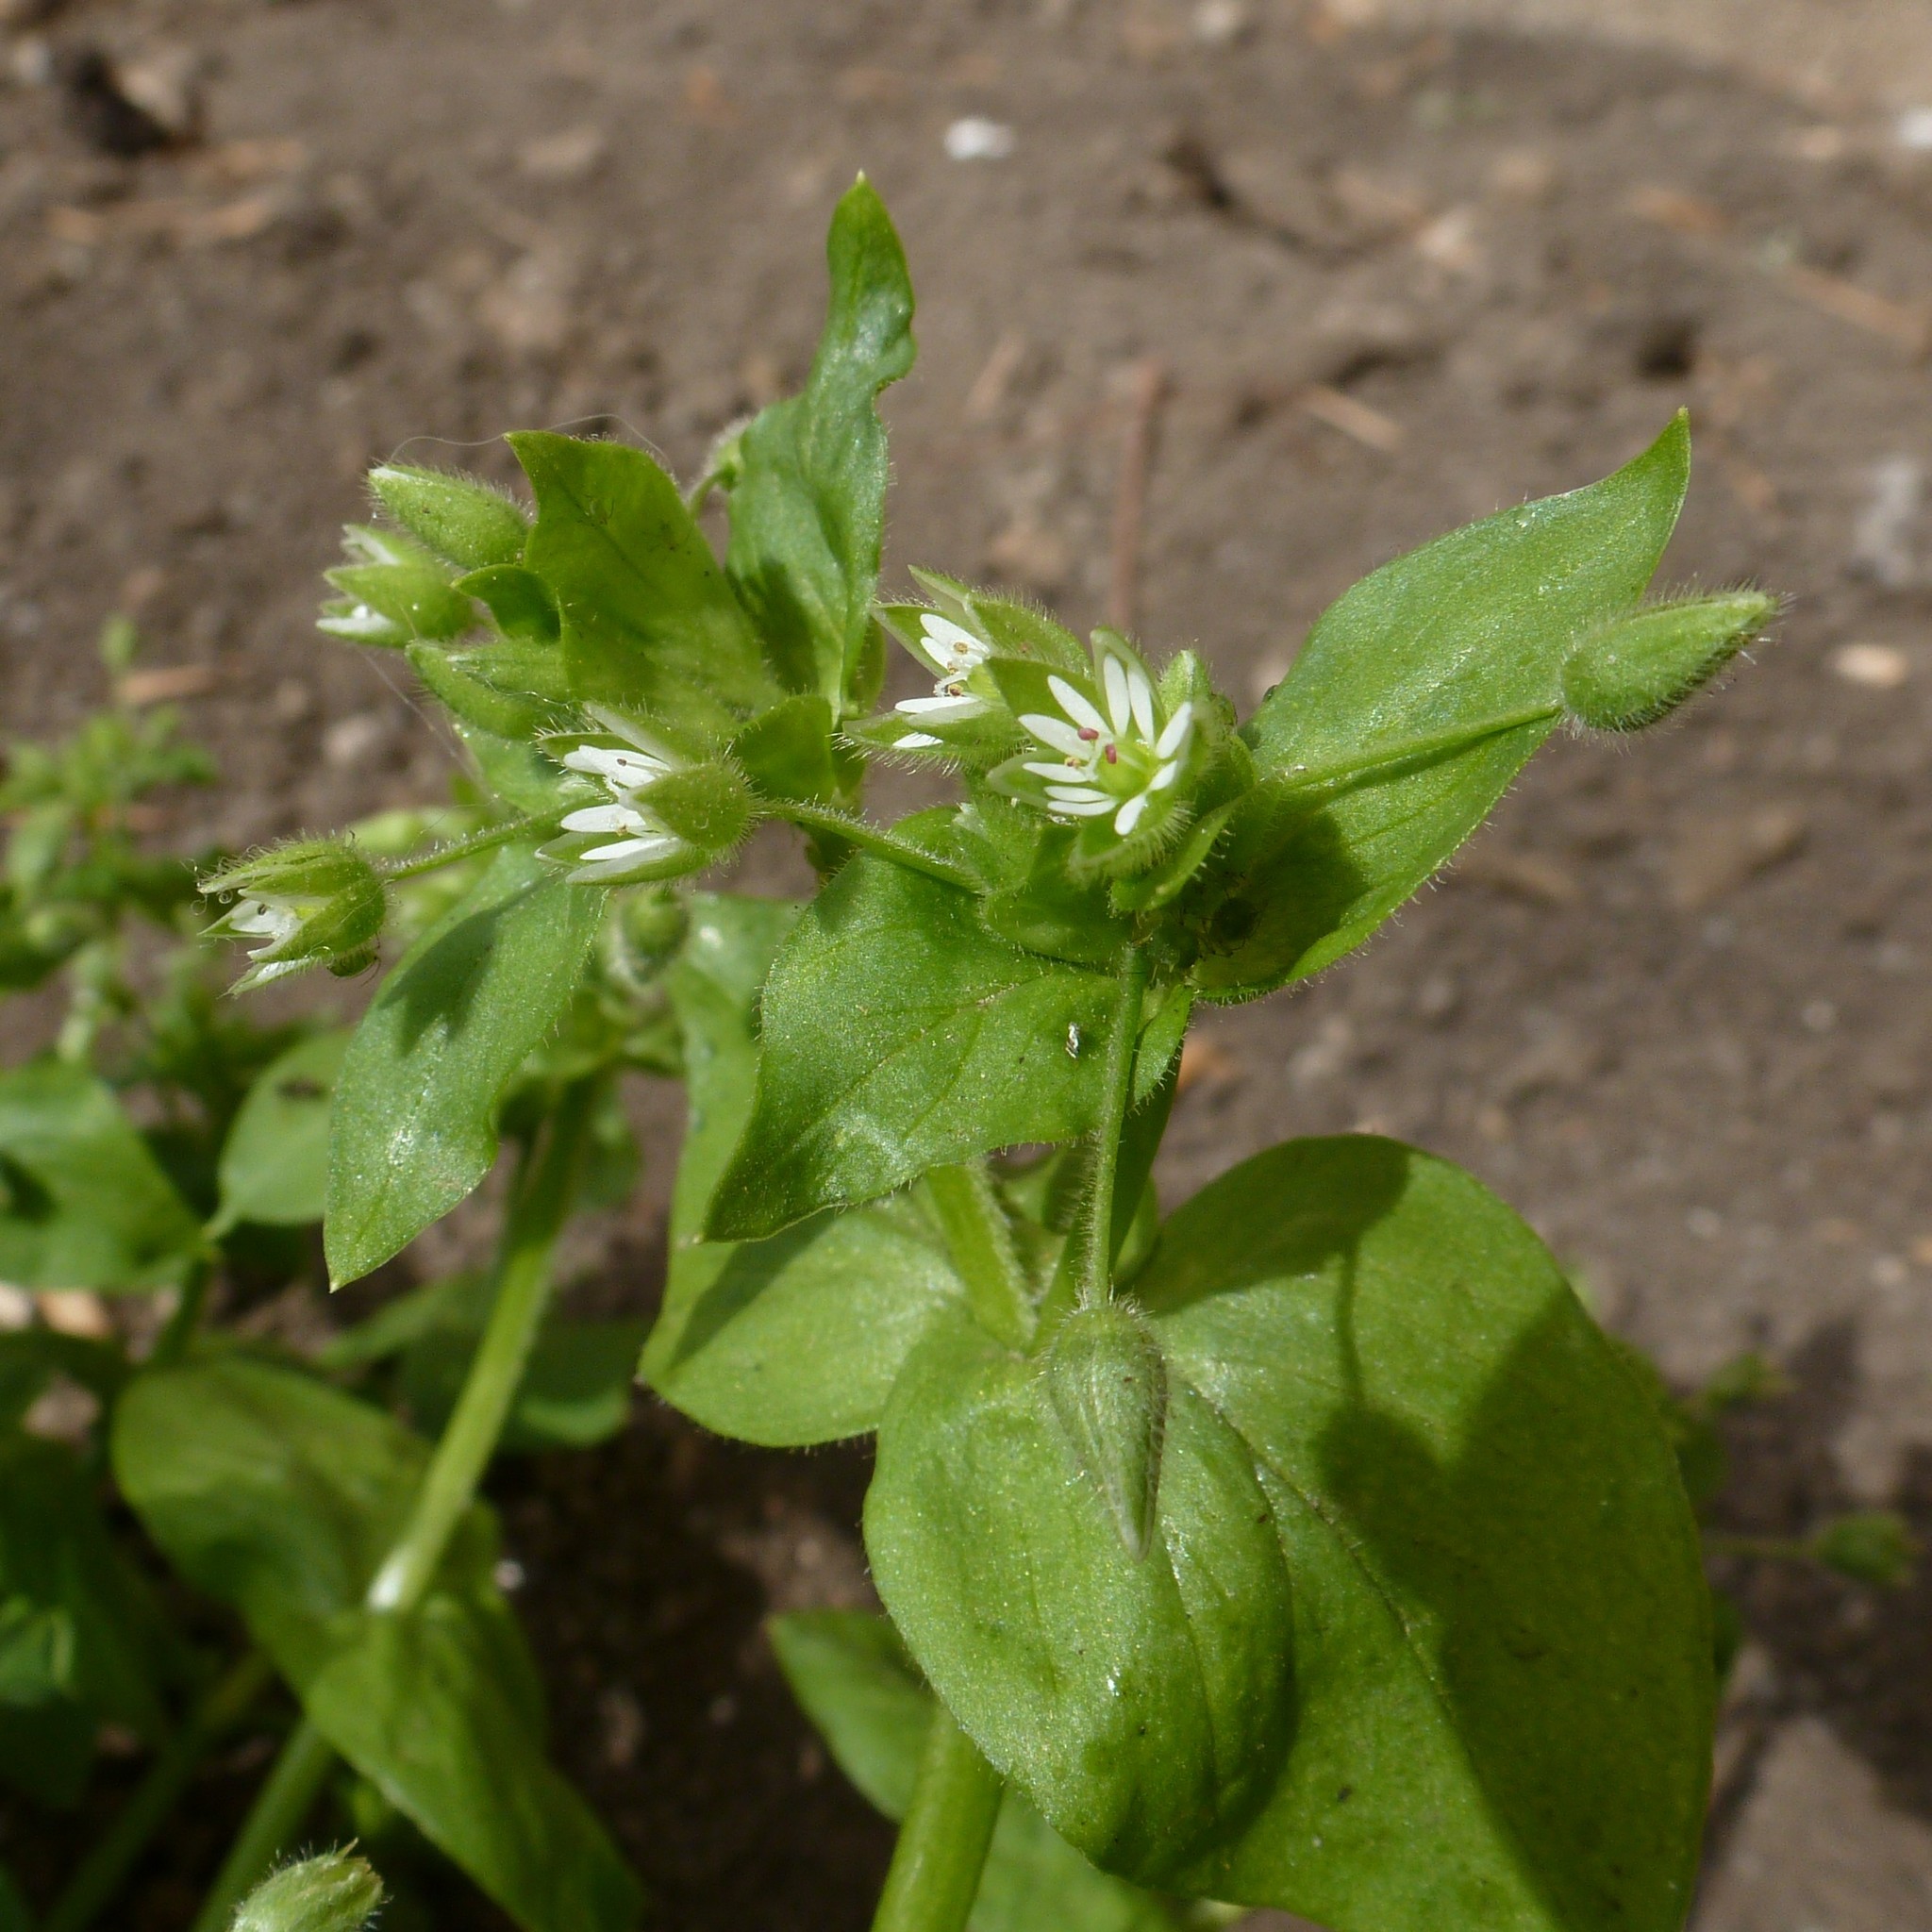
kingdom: Plantae
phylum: Tracheophyta
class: Magnoliopsida
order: Caryophyllales
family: Caryophyllaceae
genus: Stellaria
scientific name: Stellaria media
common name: Common chickweed
